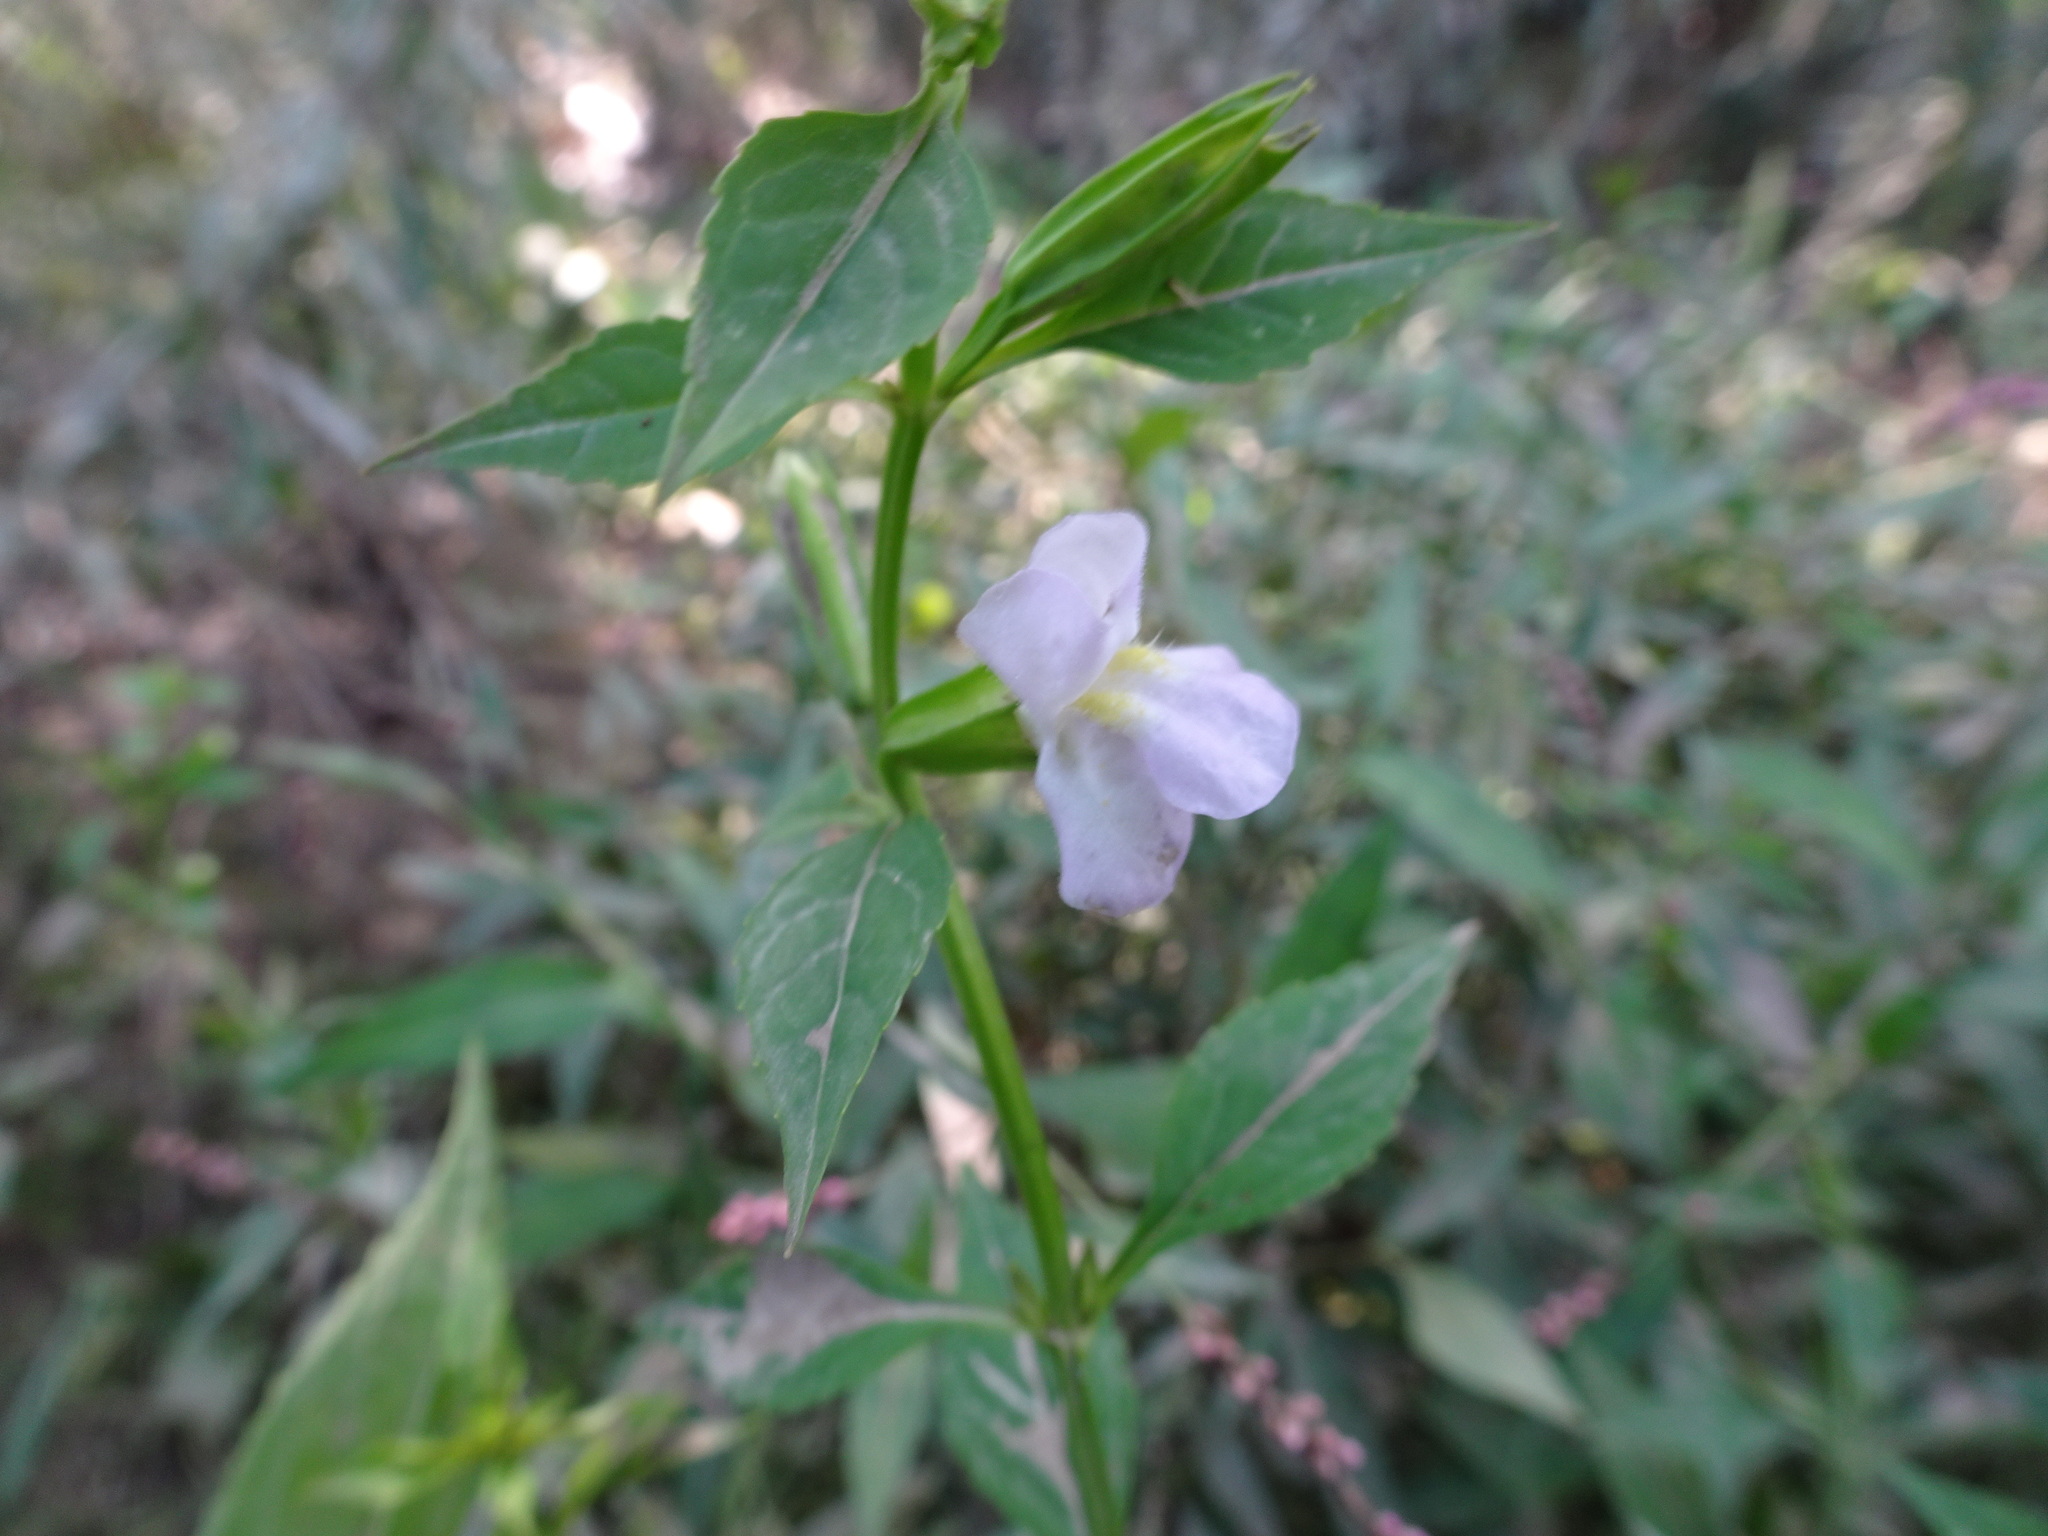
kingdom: Plantae
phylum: Tracheophyta
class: Magnoliopsida
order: Lamiales
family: Phrymaceae
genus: Mimulus
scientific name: Mimulus alatus
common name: Sharp-wing monkey-flower
